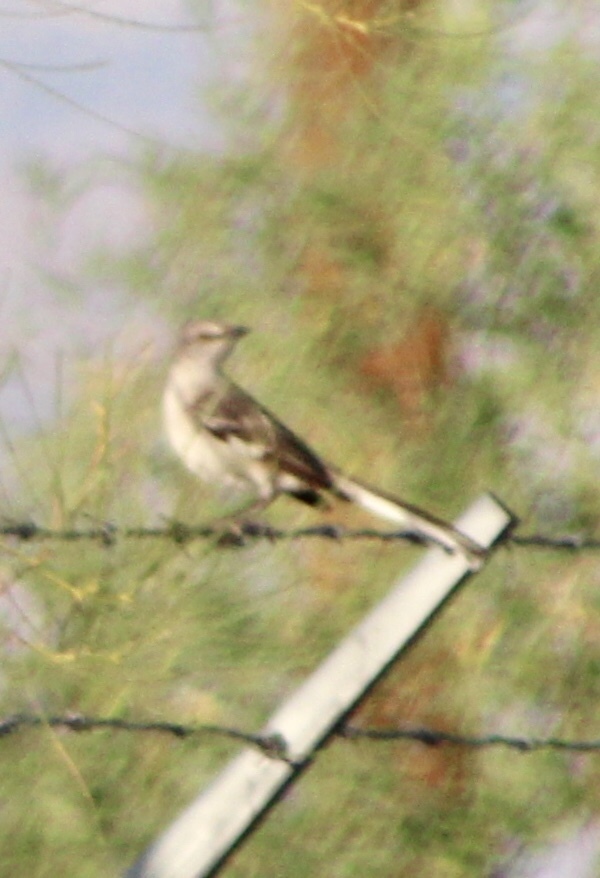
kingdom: Animalia
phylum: Chordata
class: Aves
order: Passeriformes
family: Mimidae
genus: Mimus
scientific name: Mimus polyglottos
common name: Northern mockingbird
